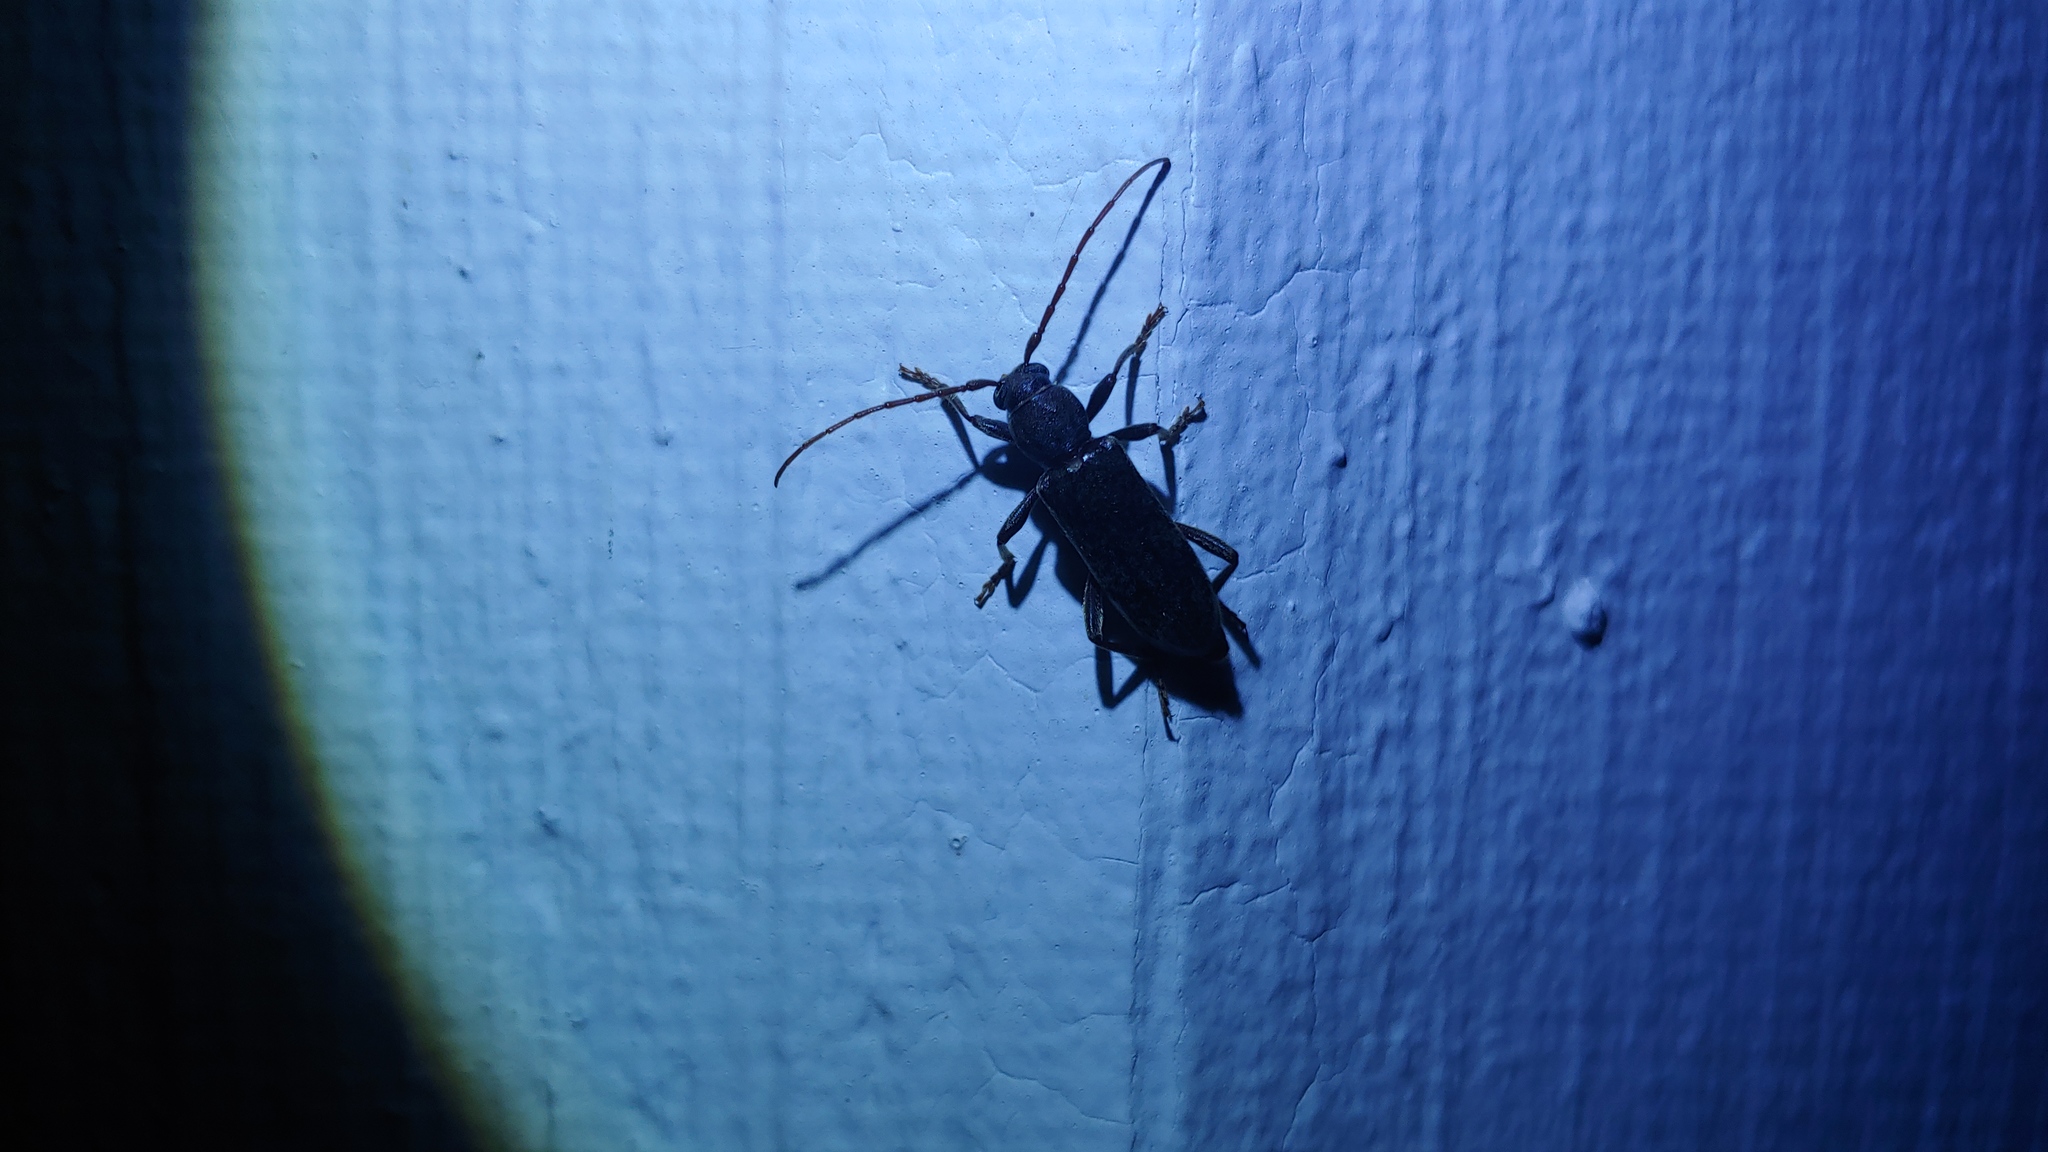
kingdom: Animalia
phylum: Arthropoda
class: Insecta
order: Coleoptera
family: Cerambycidae
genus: Trichoferus
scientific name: Trichoferus campestris
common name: Velvet long horned beetle
